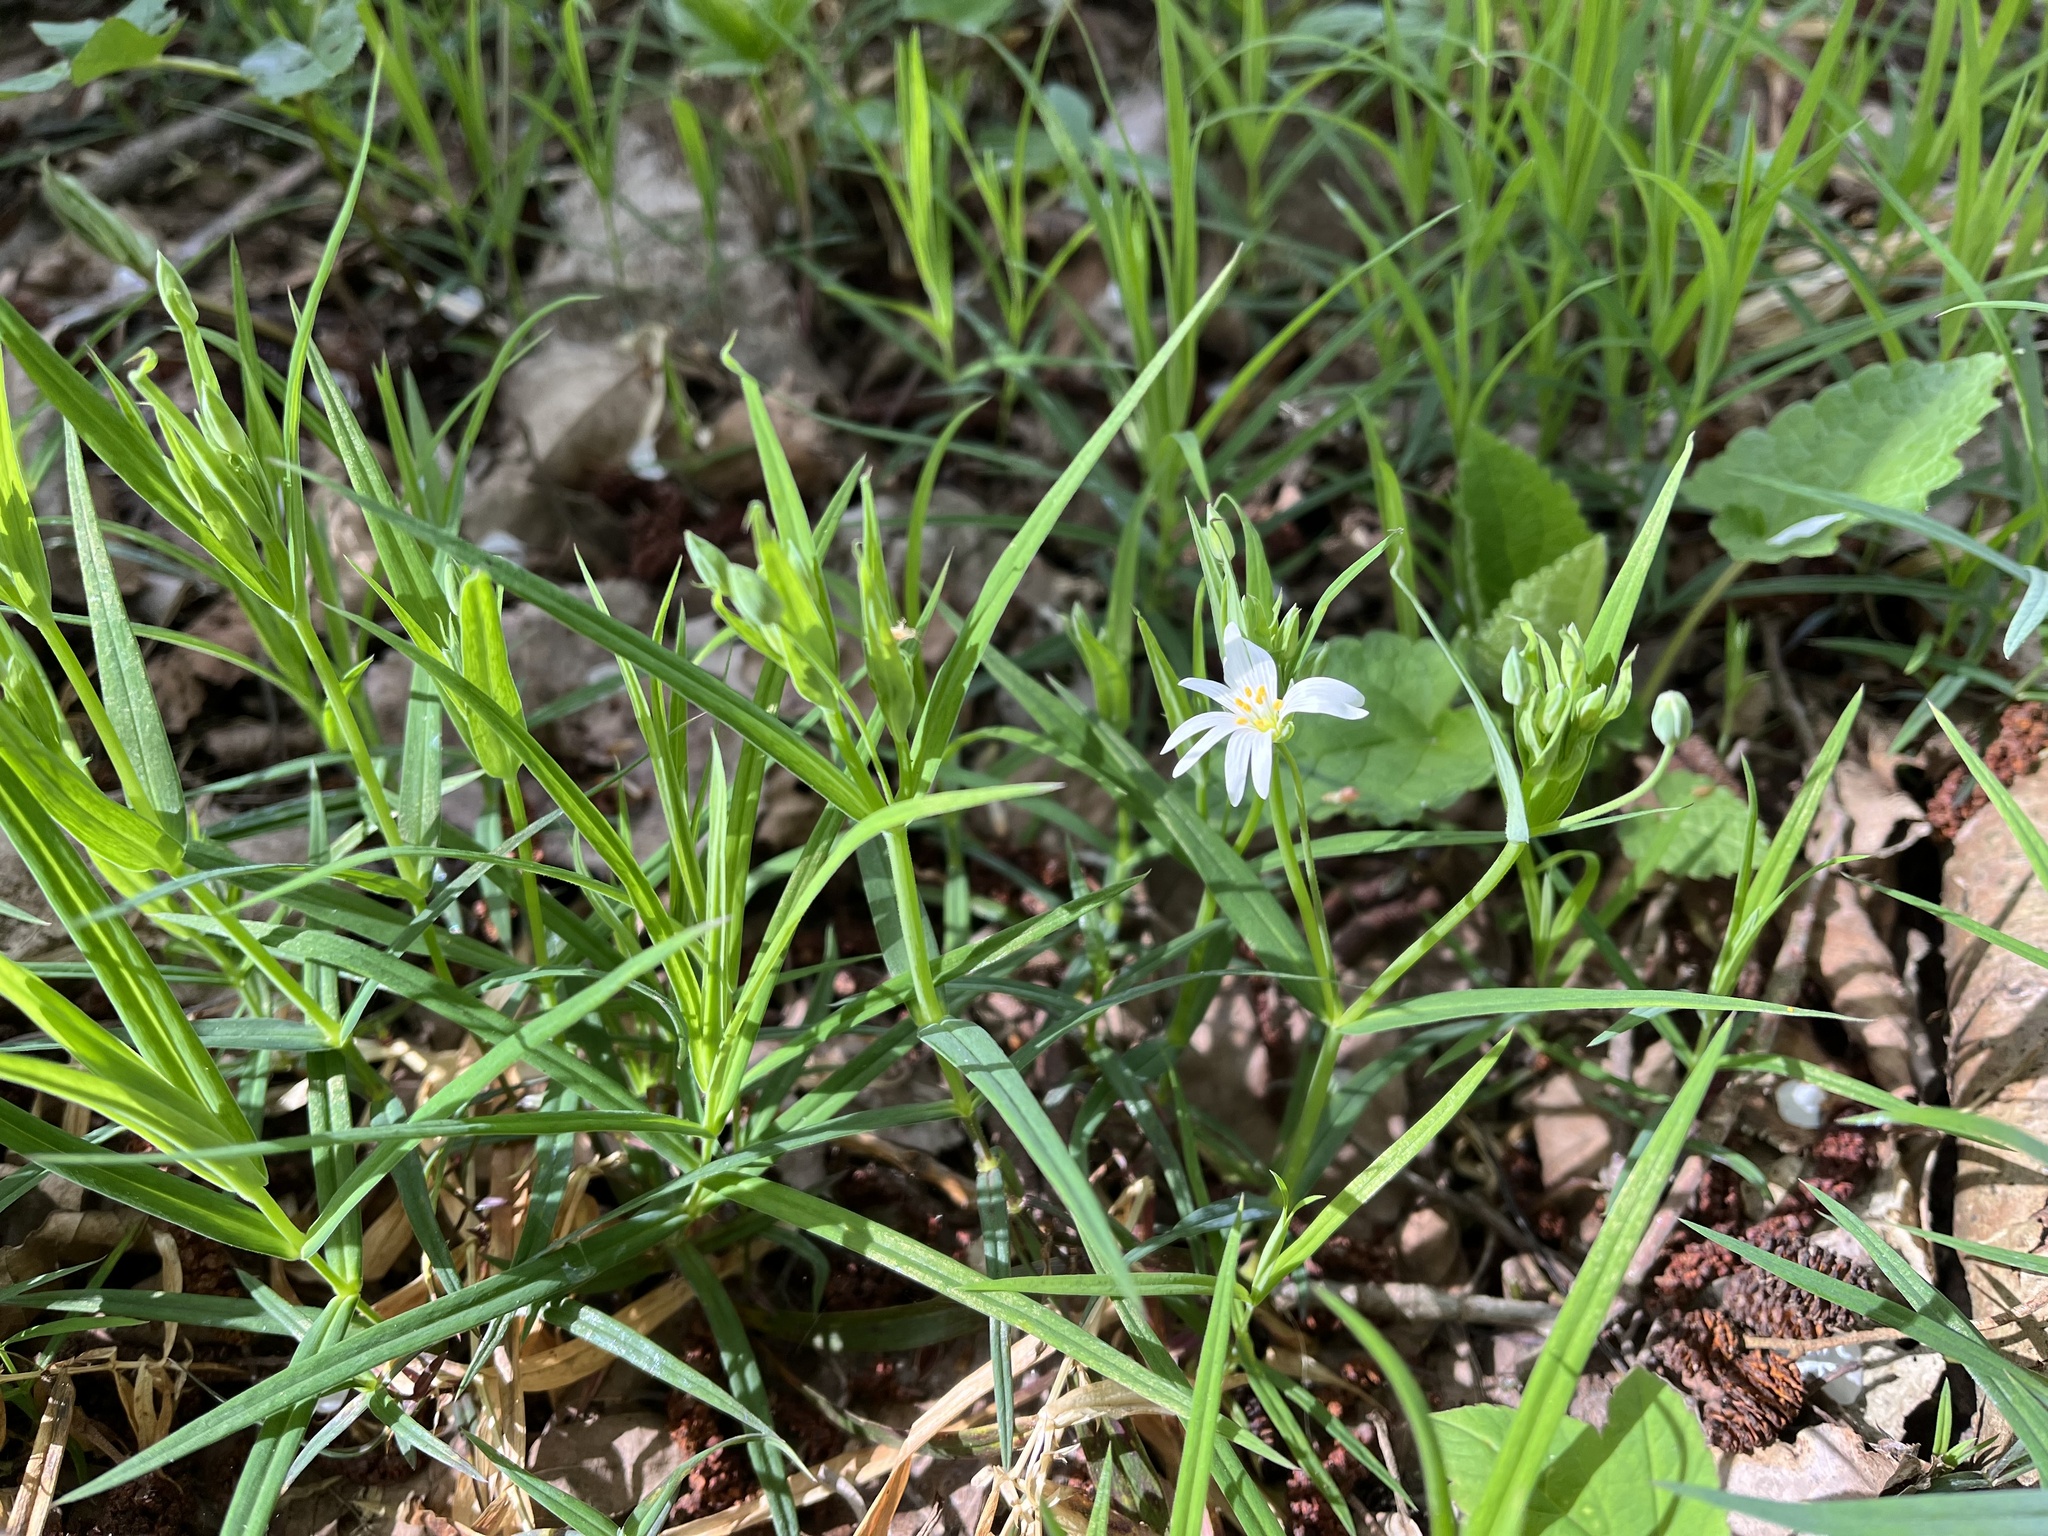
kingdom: Plantae
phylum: Tracheophyta
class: Magnoliopsida
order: Caryophyllales
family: Caryophyllaceae
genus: Rabelera
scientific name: Rabelera holostea
